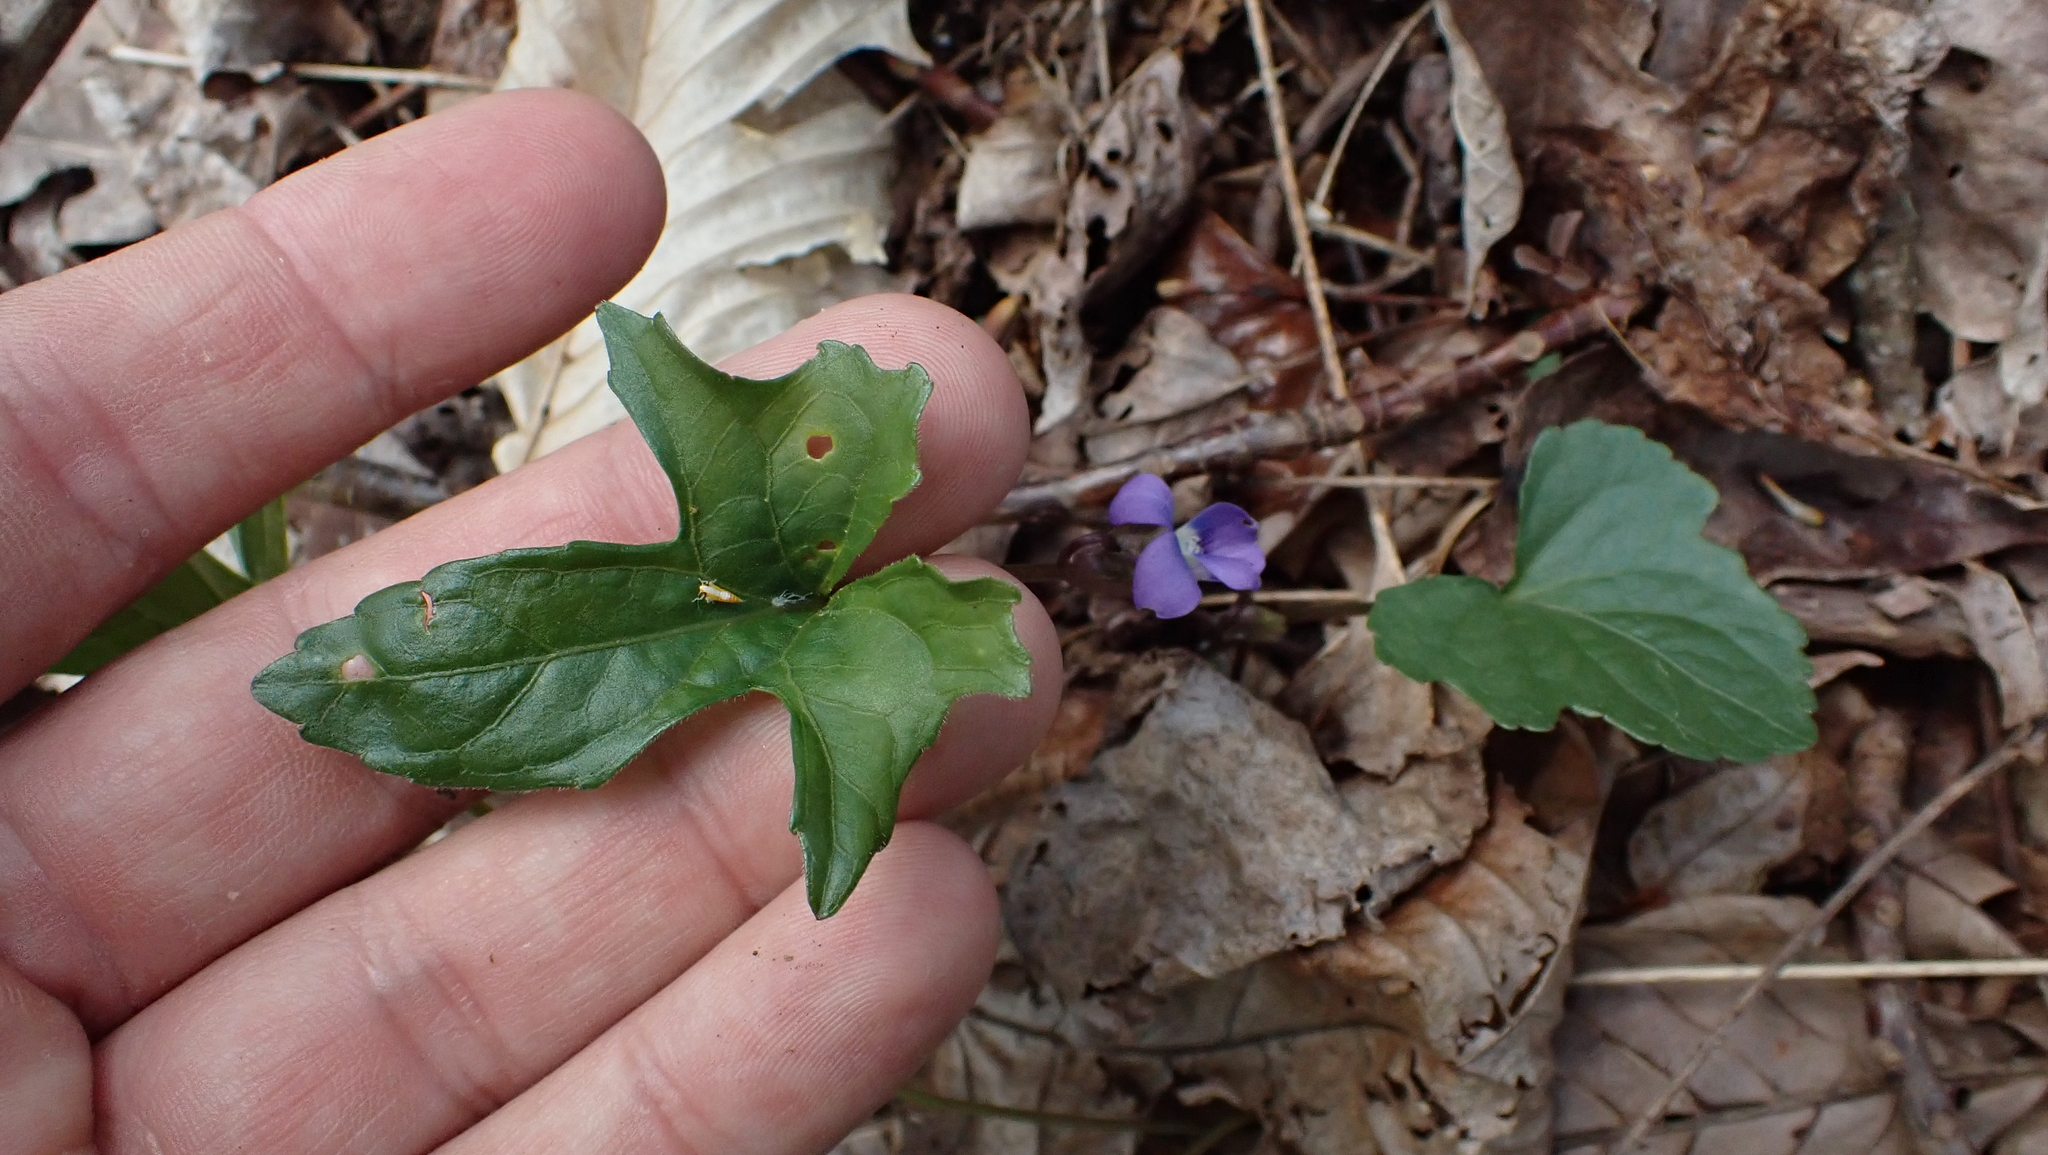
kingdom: Plantae
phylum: Tracheophyta
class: Magnoliopsida
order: Malpighiales
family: Violaceae
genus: Viola
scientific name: Viola palmata
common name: Early blue violet
